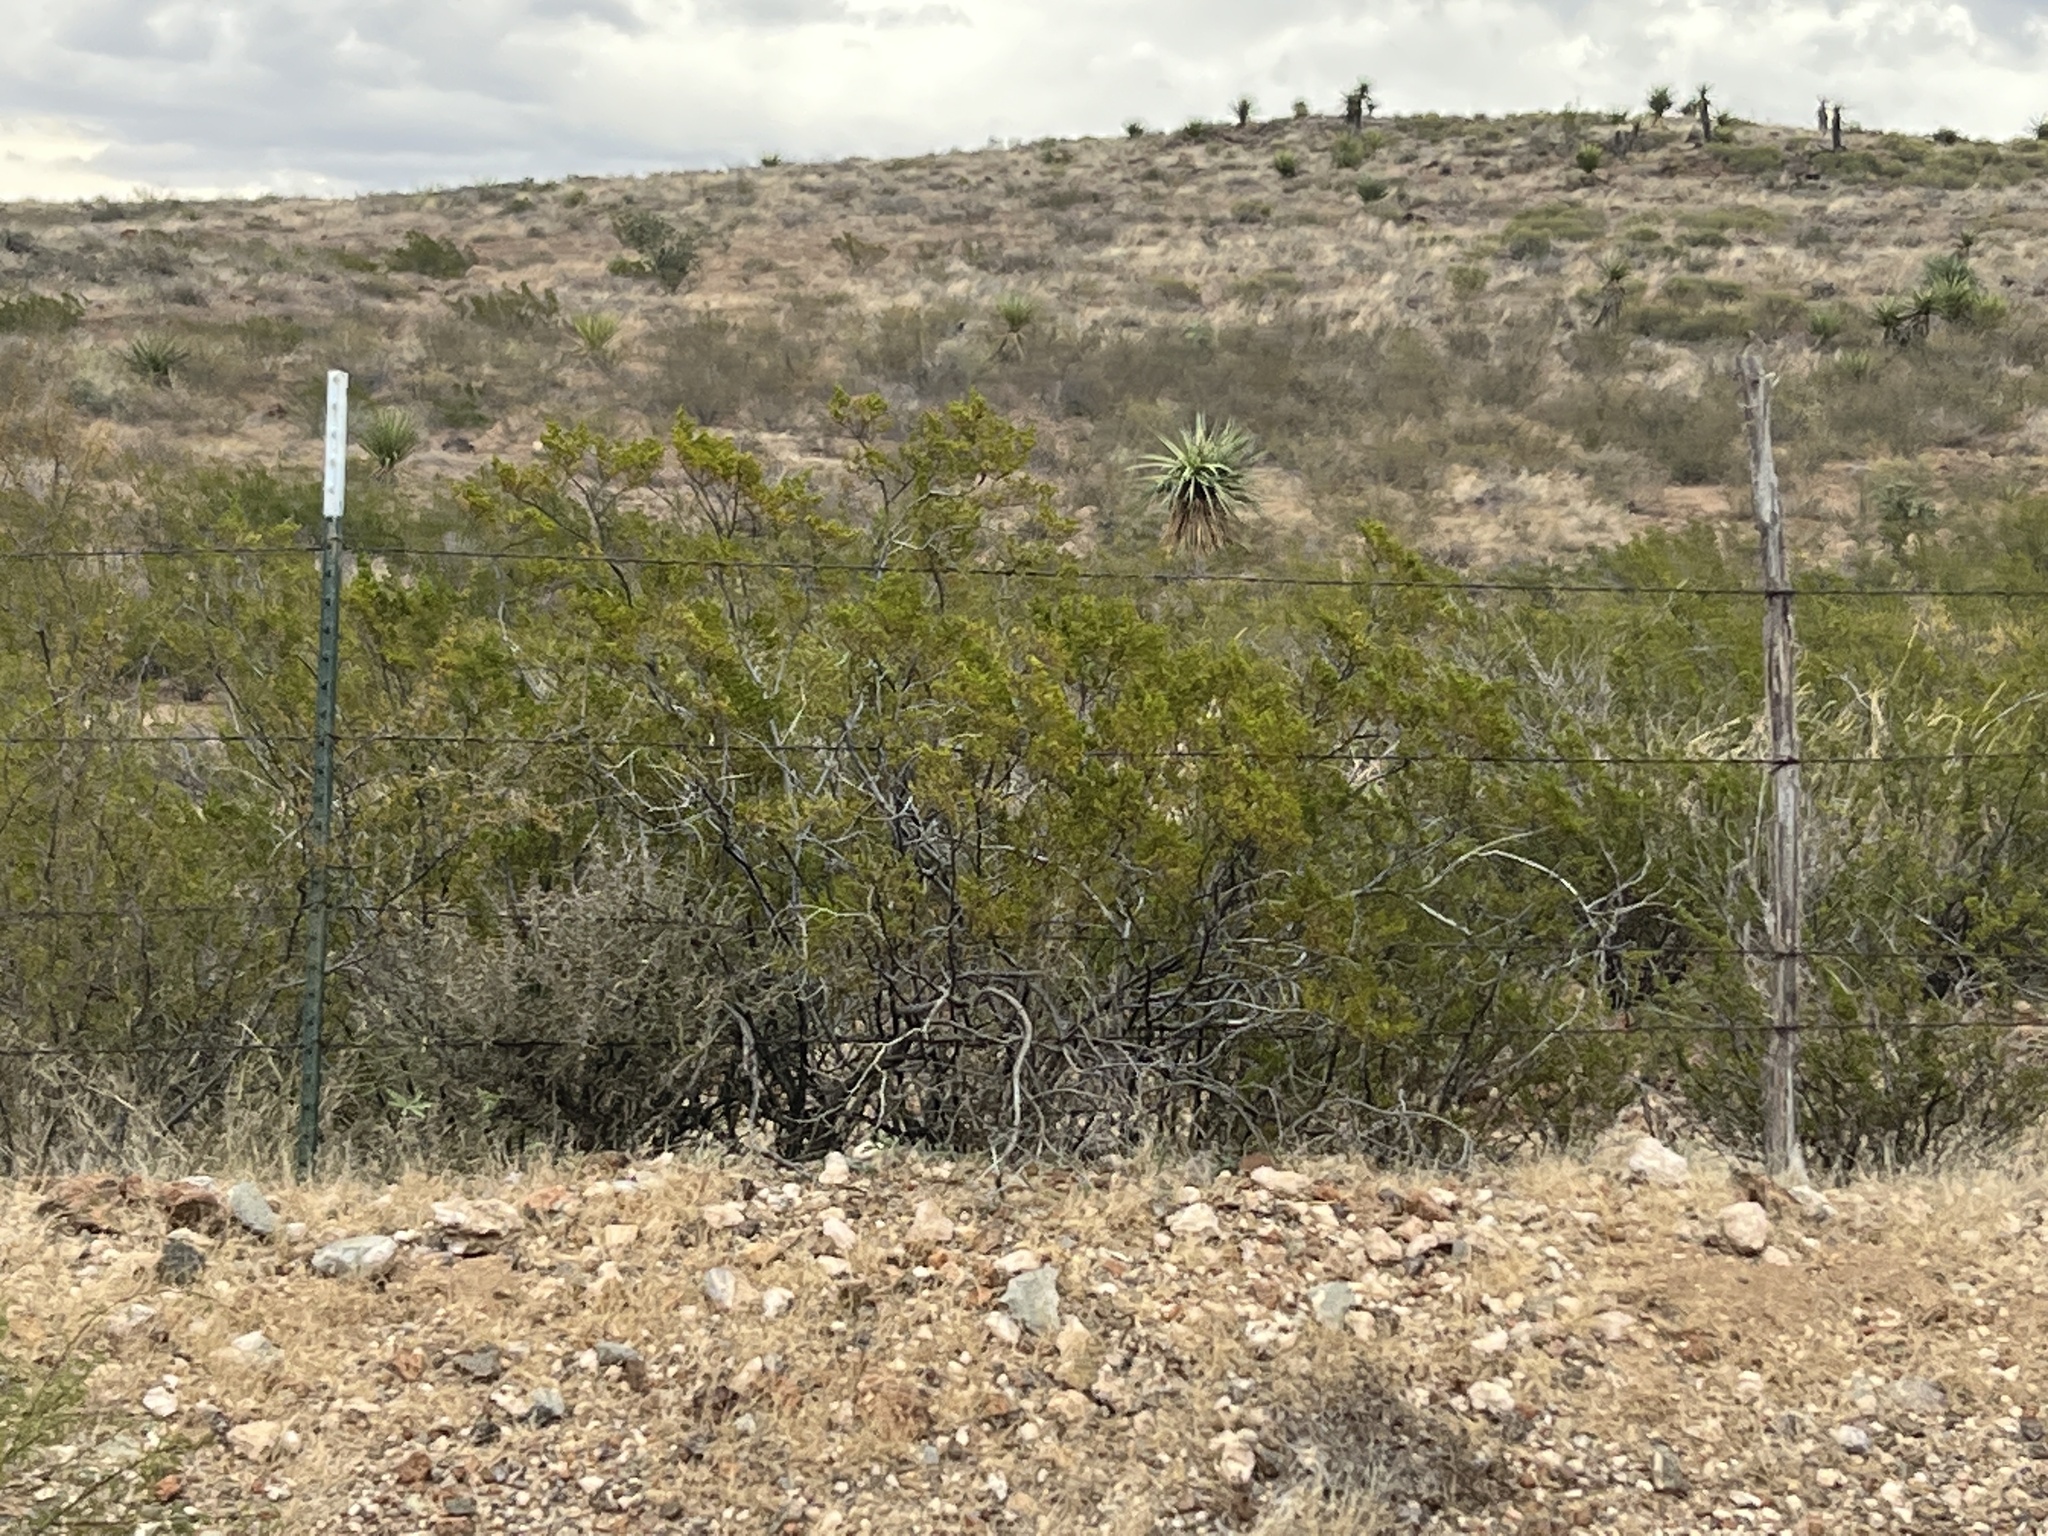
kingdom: Plantae
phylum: Tracheophyta
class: Magnoliopsida
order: Zygophyllales
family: Zygophyllaceae
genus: Larrea
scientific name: Larrea tridentata
